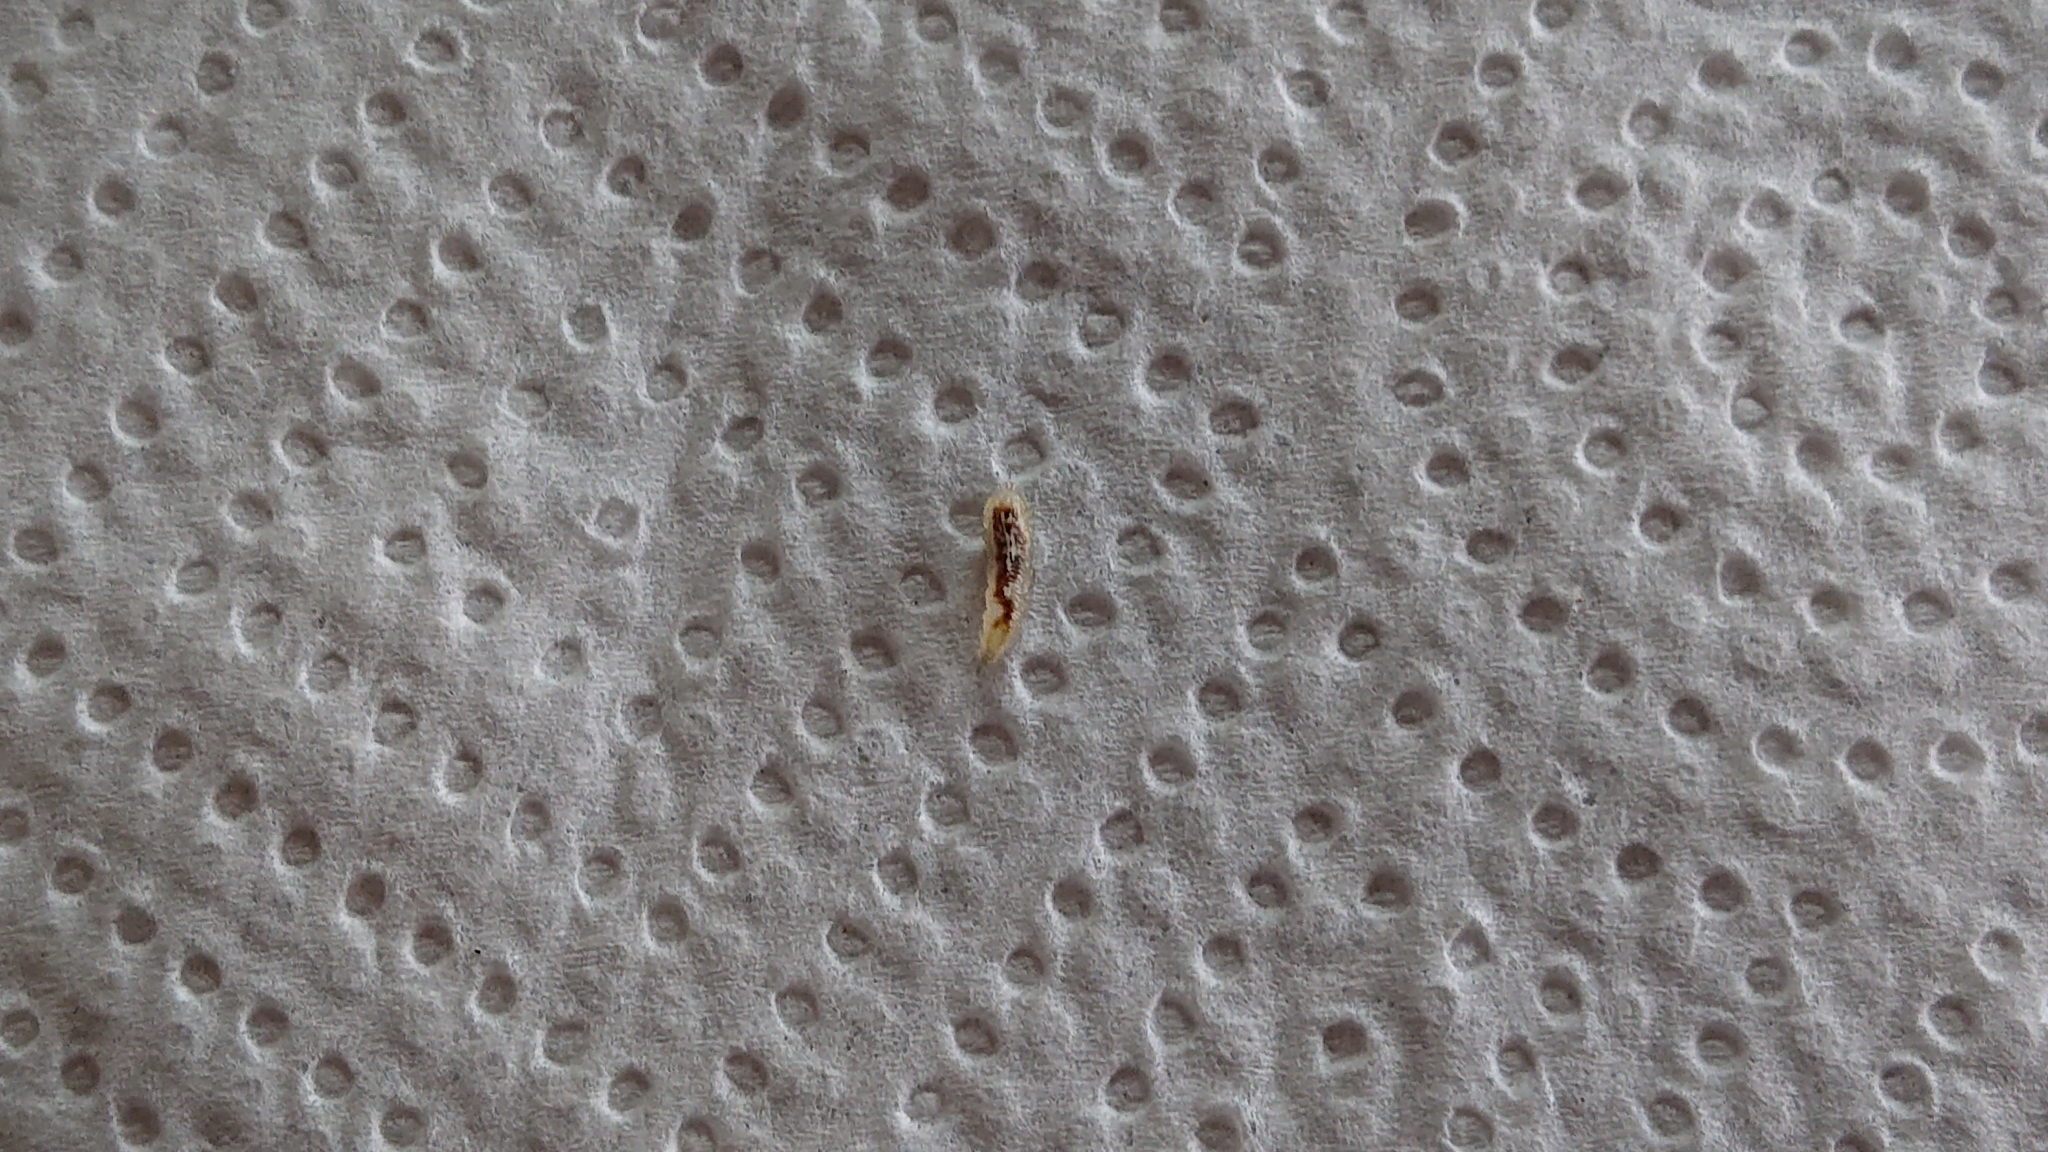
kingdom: Animalia
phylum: Arthropoda
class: Insecta
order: Diptera
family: Syrphidae
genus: Episyrphus
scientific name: Episyrphus balteatus
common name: Marmalade hoverfly
